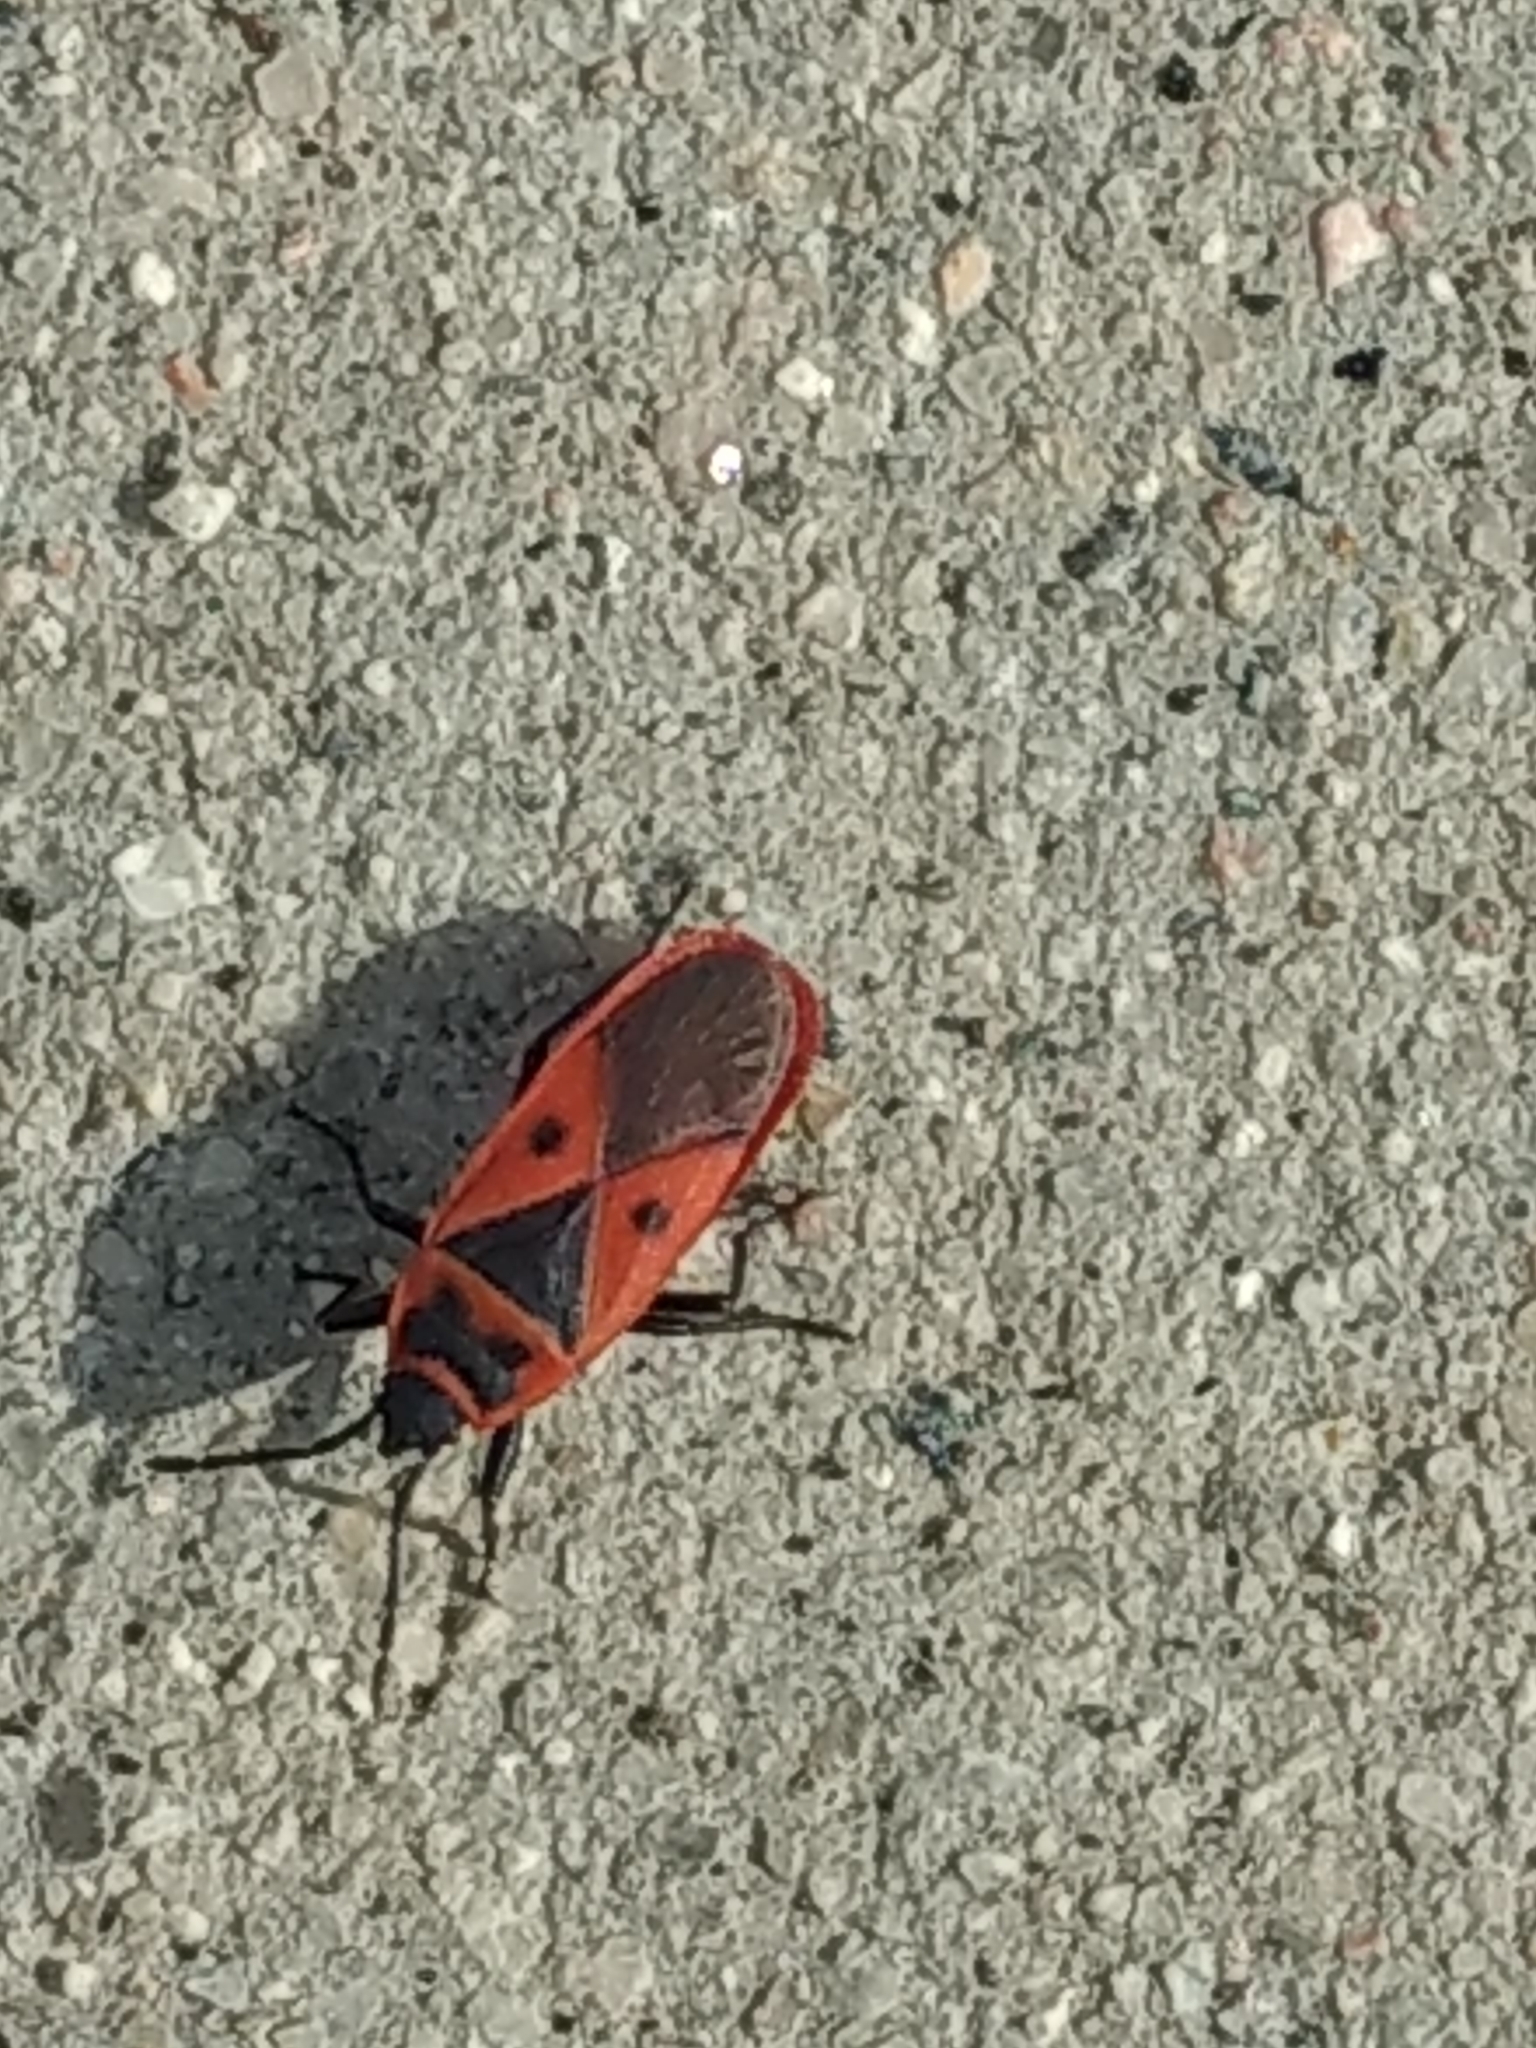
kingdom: Animalia
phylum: Arthropoda
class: Insecta
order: Hemiptera
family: Pyrrhocoridae
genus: Scantius
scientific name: Scantius aegyptius
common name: Red bug
